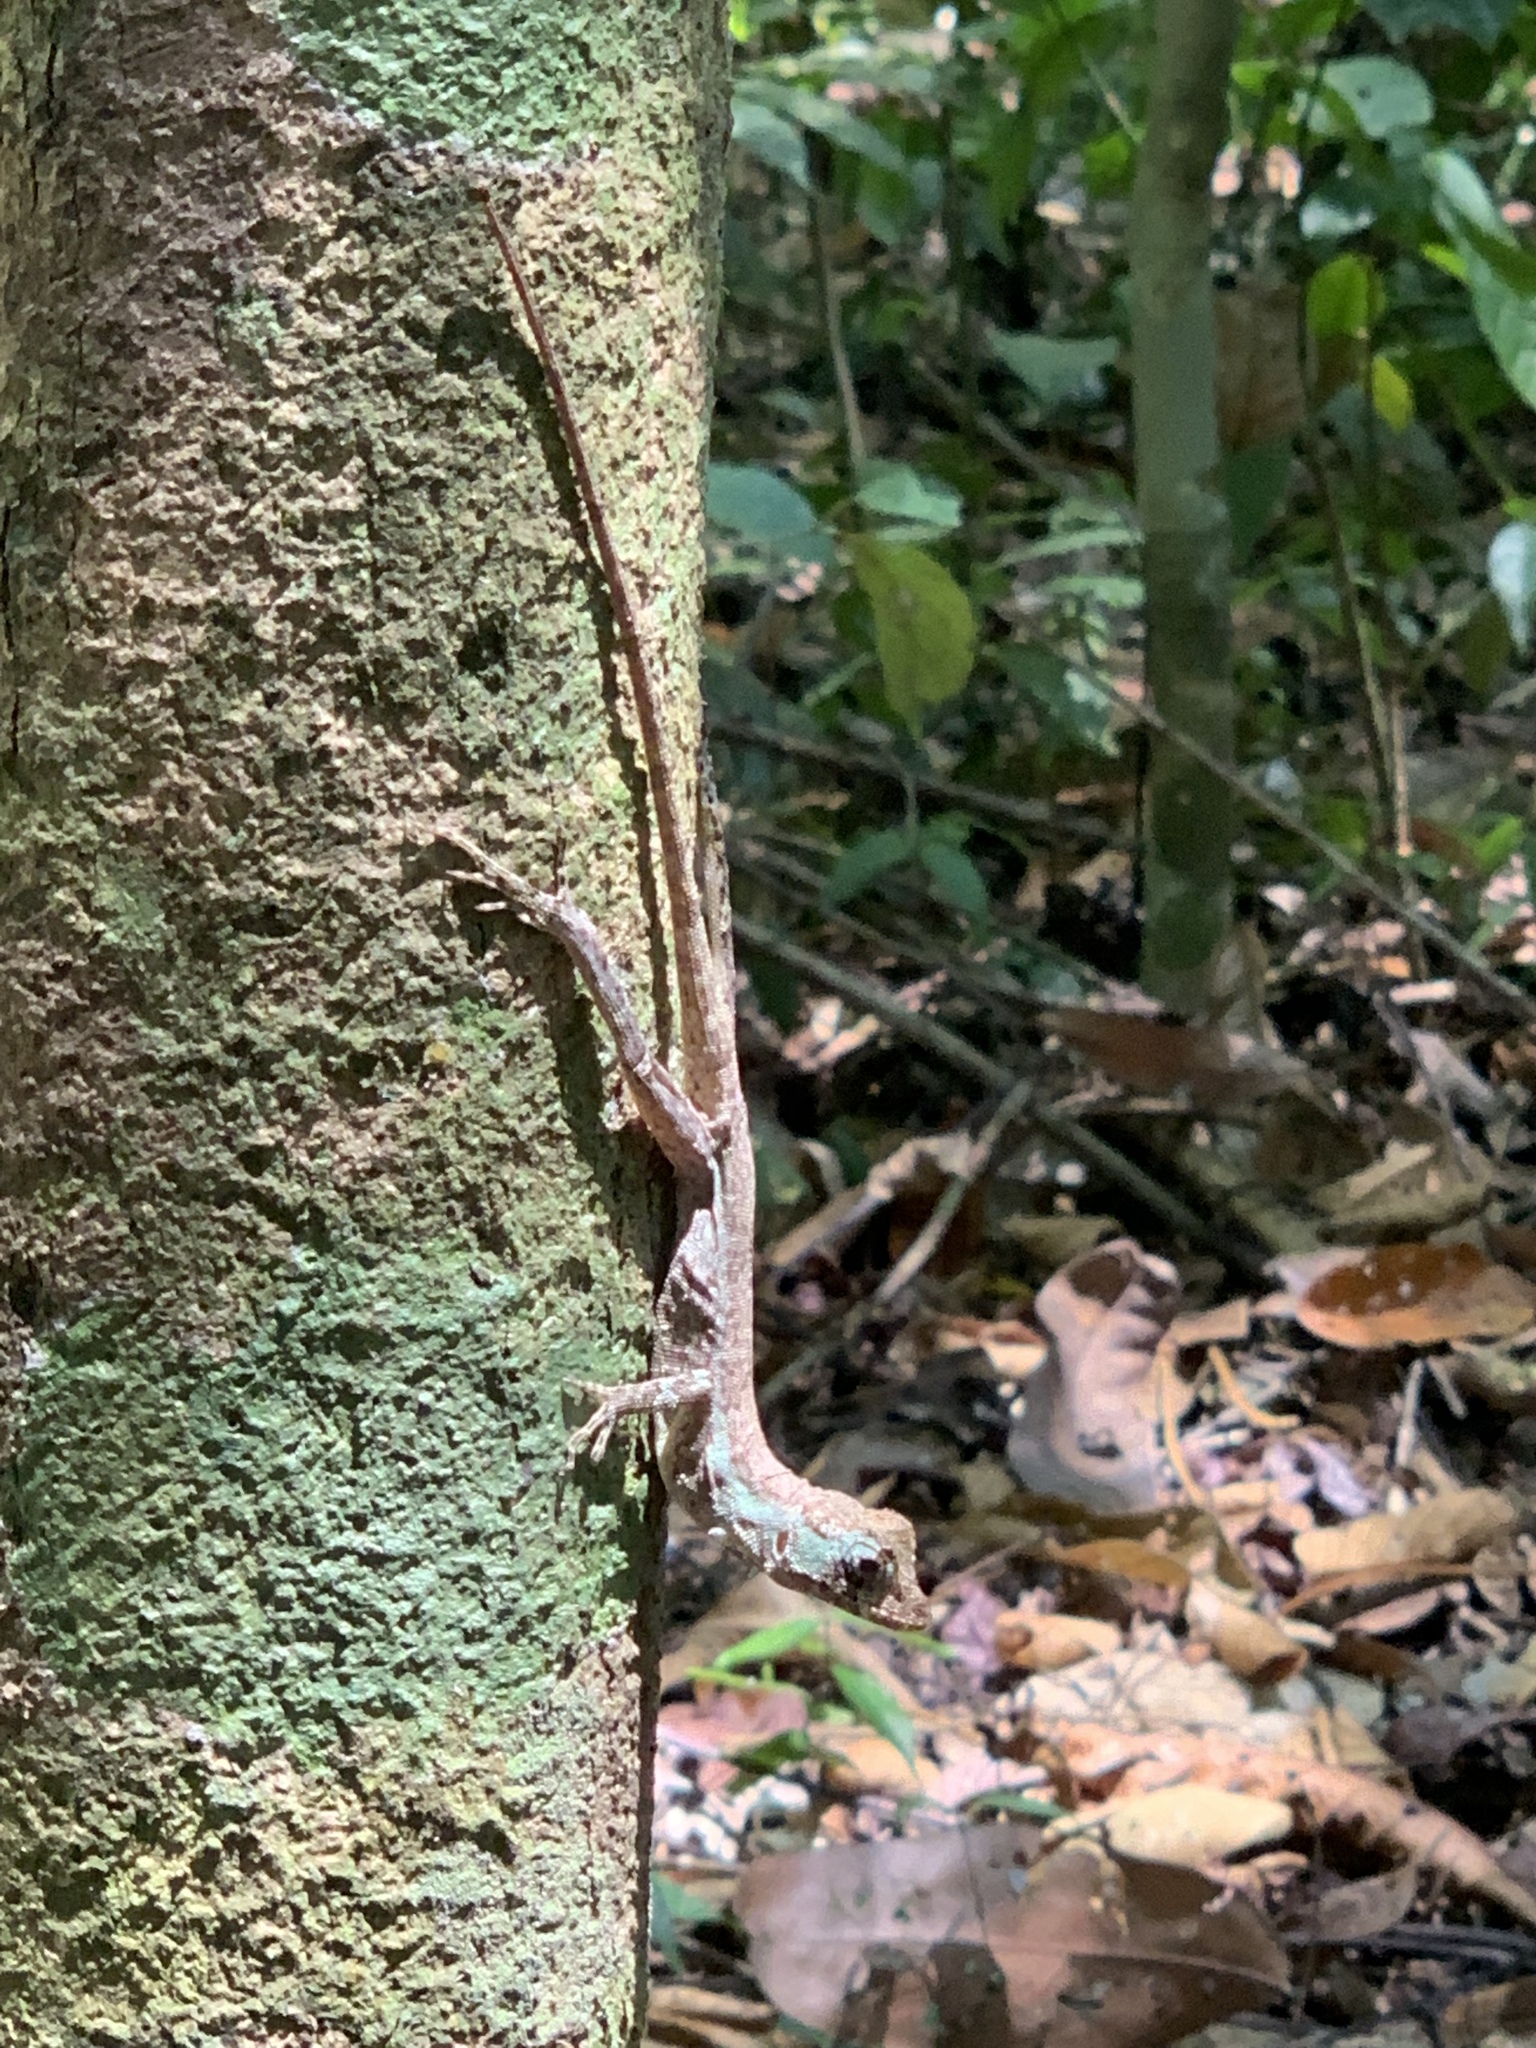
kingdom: Animalia
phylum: Chordata
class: Squamata
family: Dactyloidae
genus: Anolis
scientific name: Anolis capito
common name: Bighead anole
